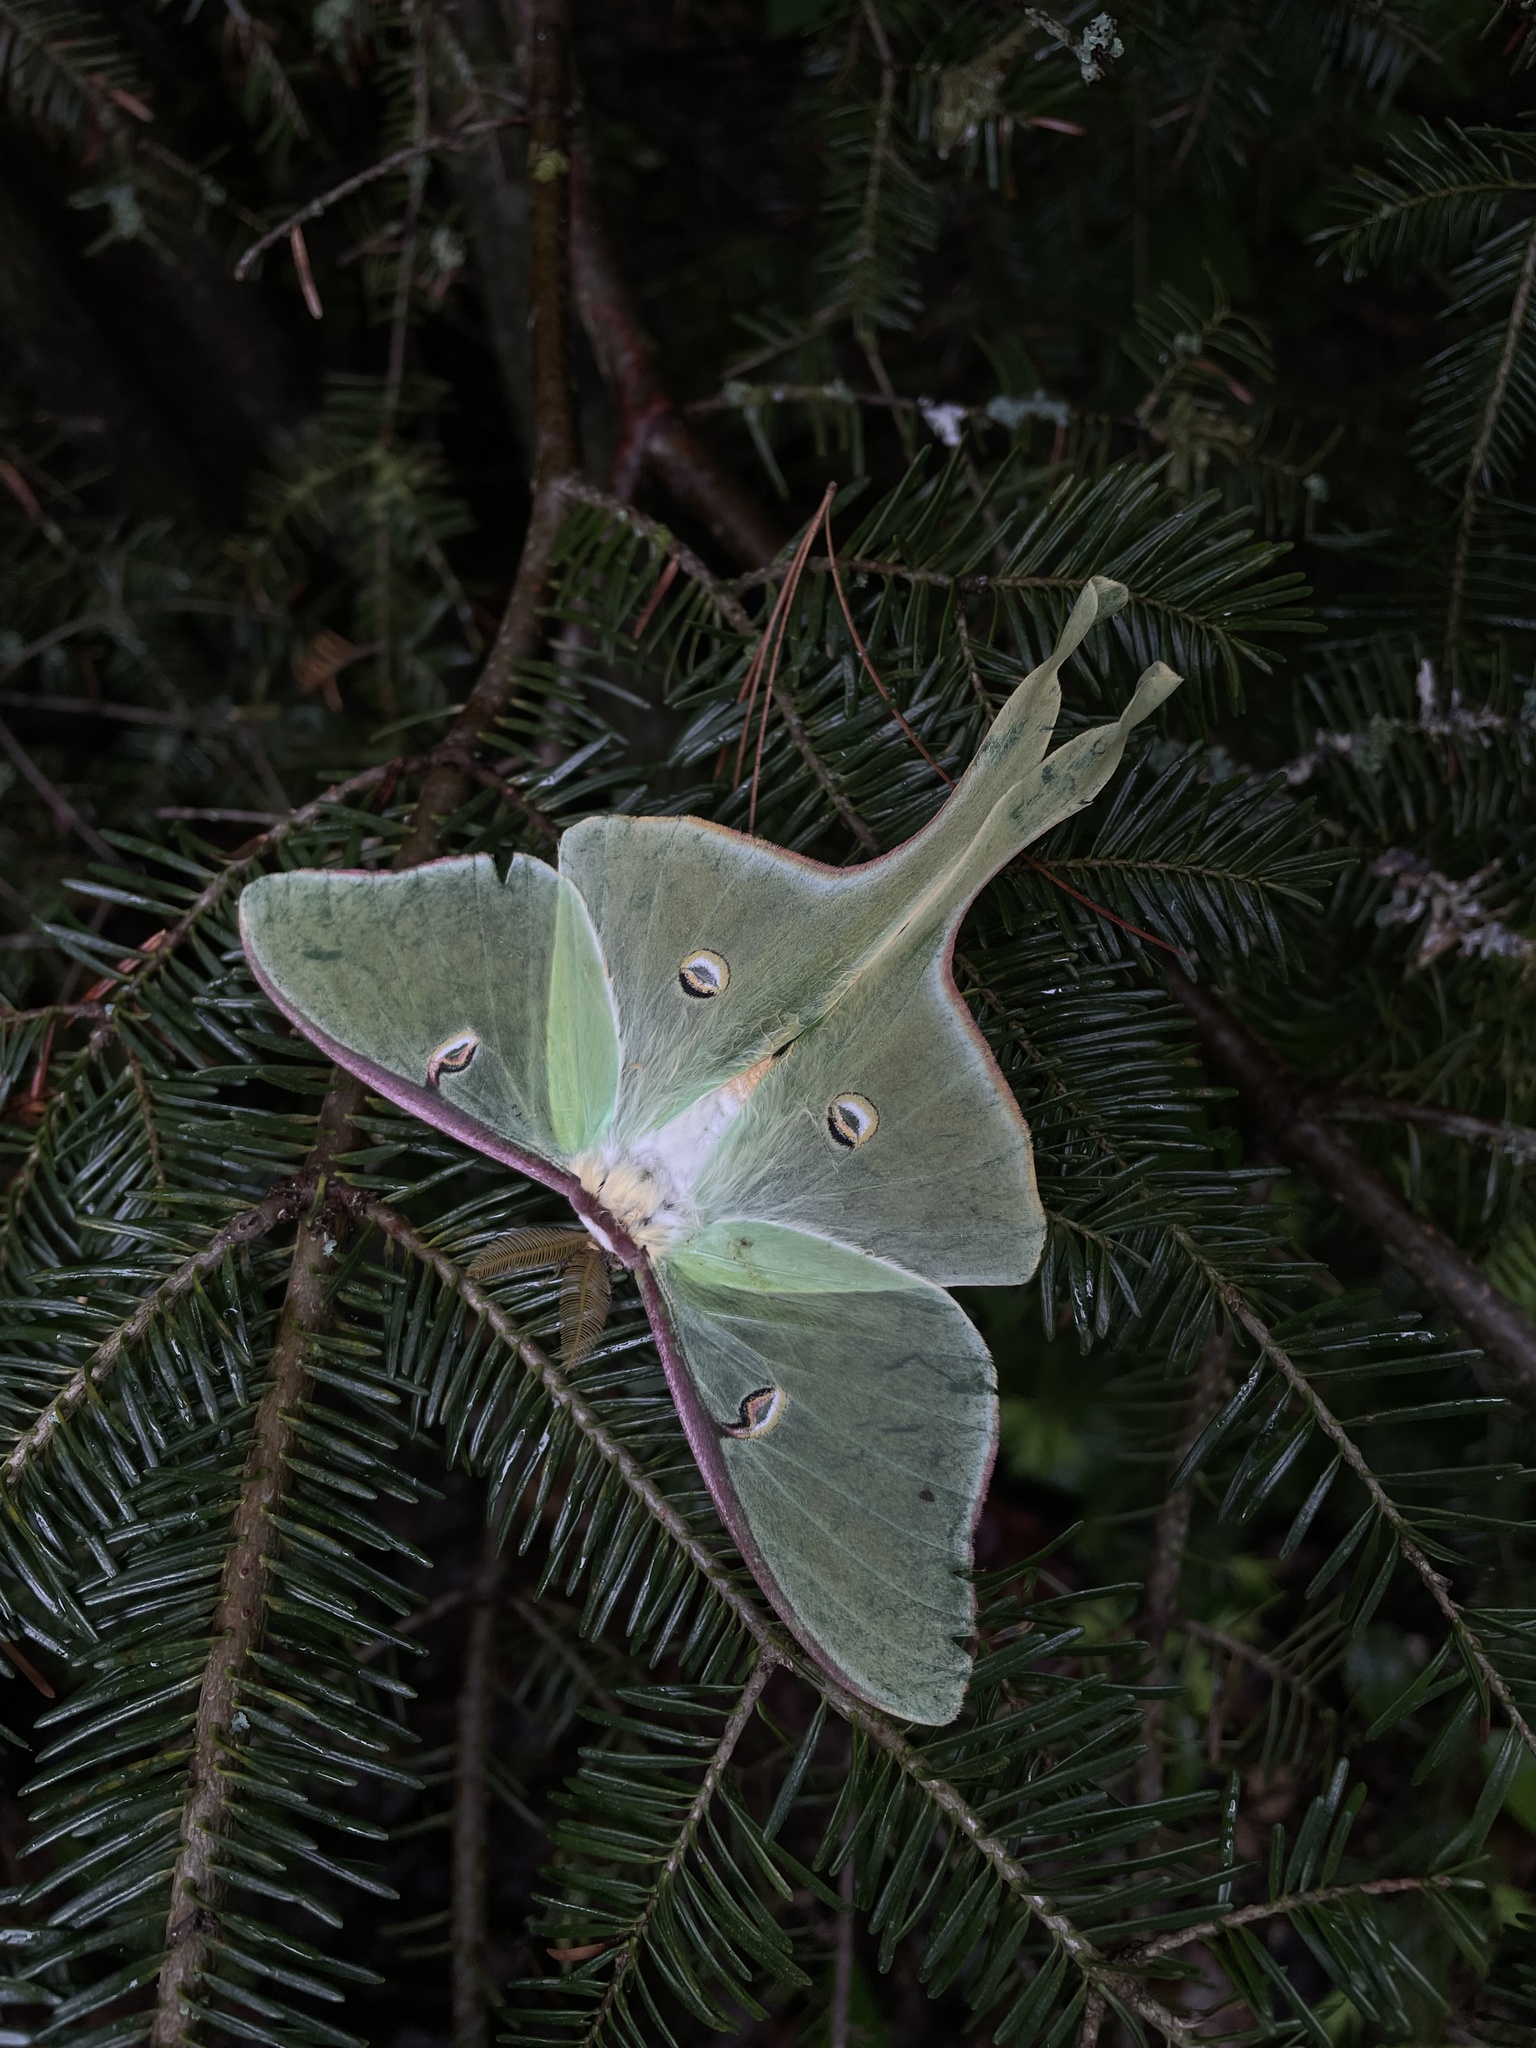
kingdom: Animalia
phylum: Arthropoda
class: Insecta
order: Lepidoptera
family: Saturniidae
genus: Actias
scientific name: Actias luna
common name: Luna moth
